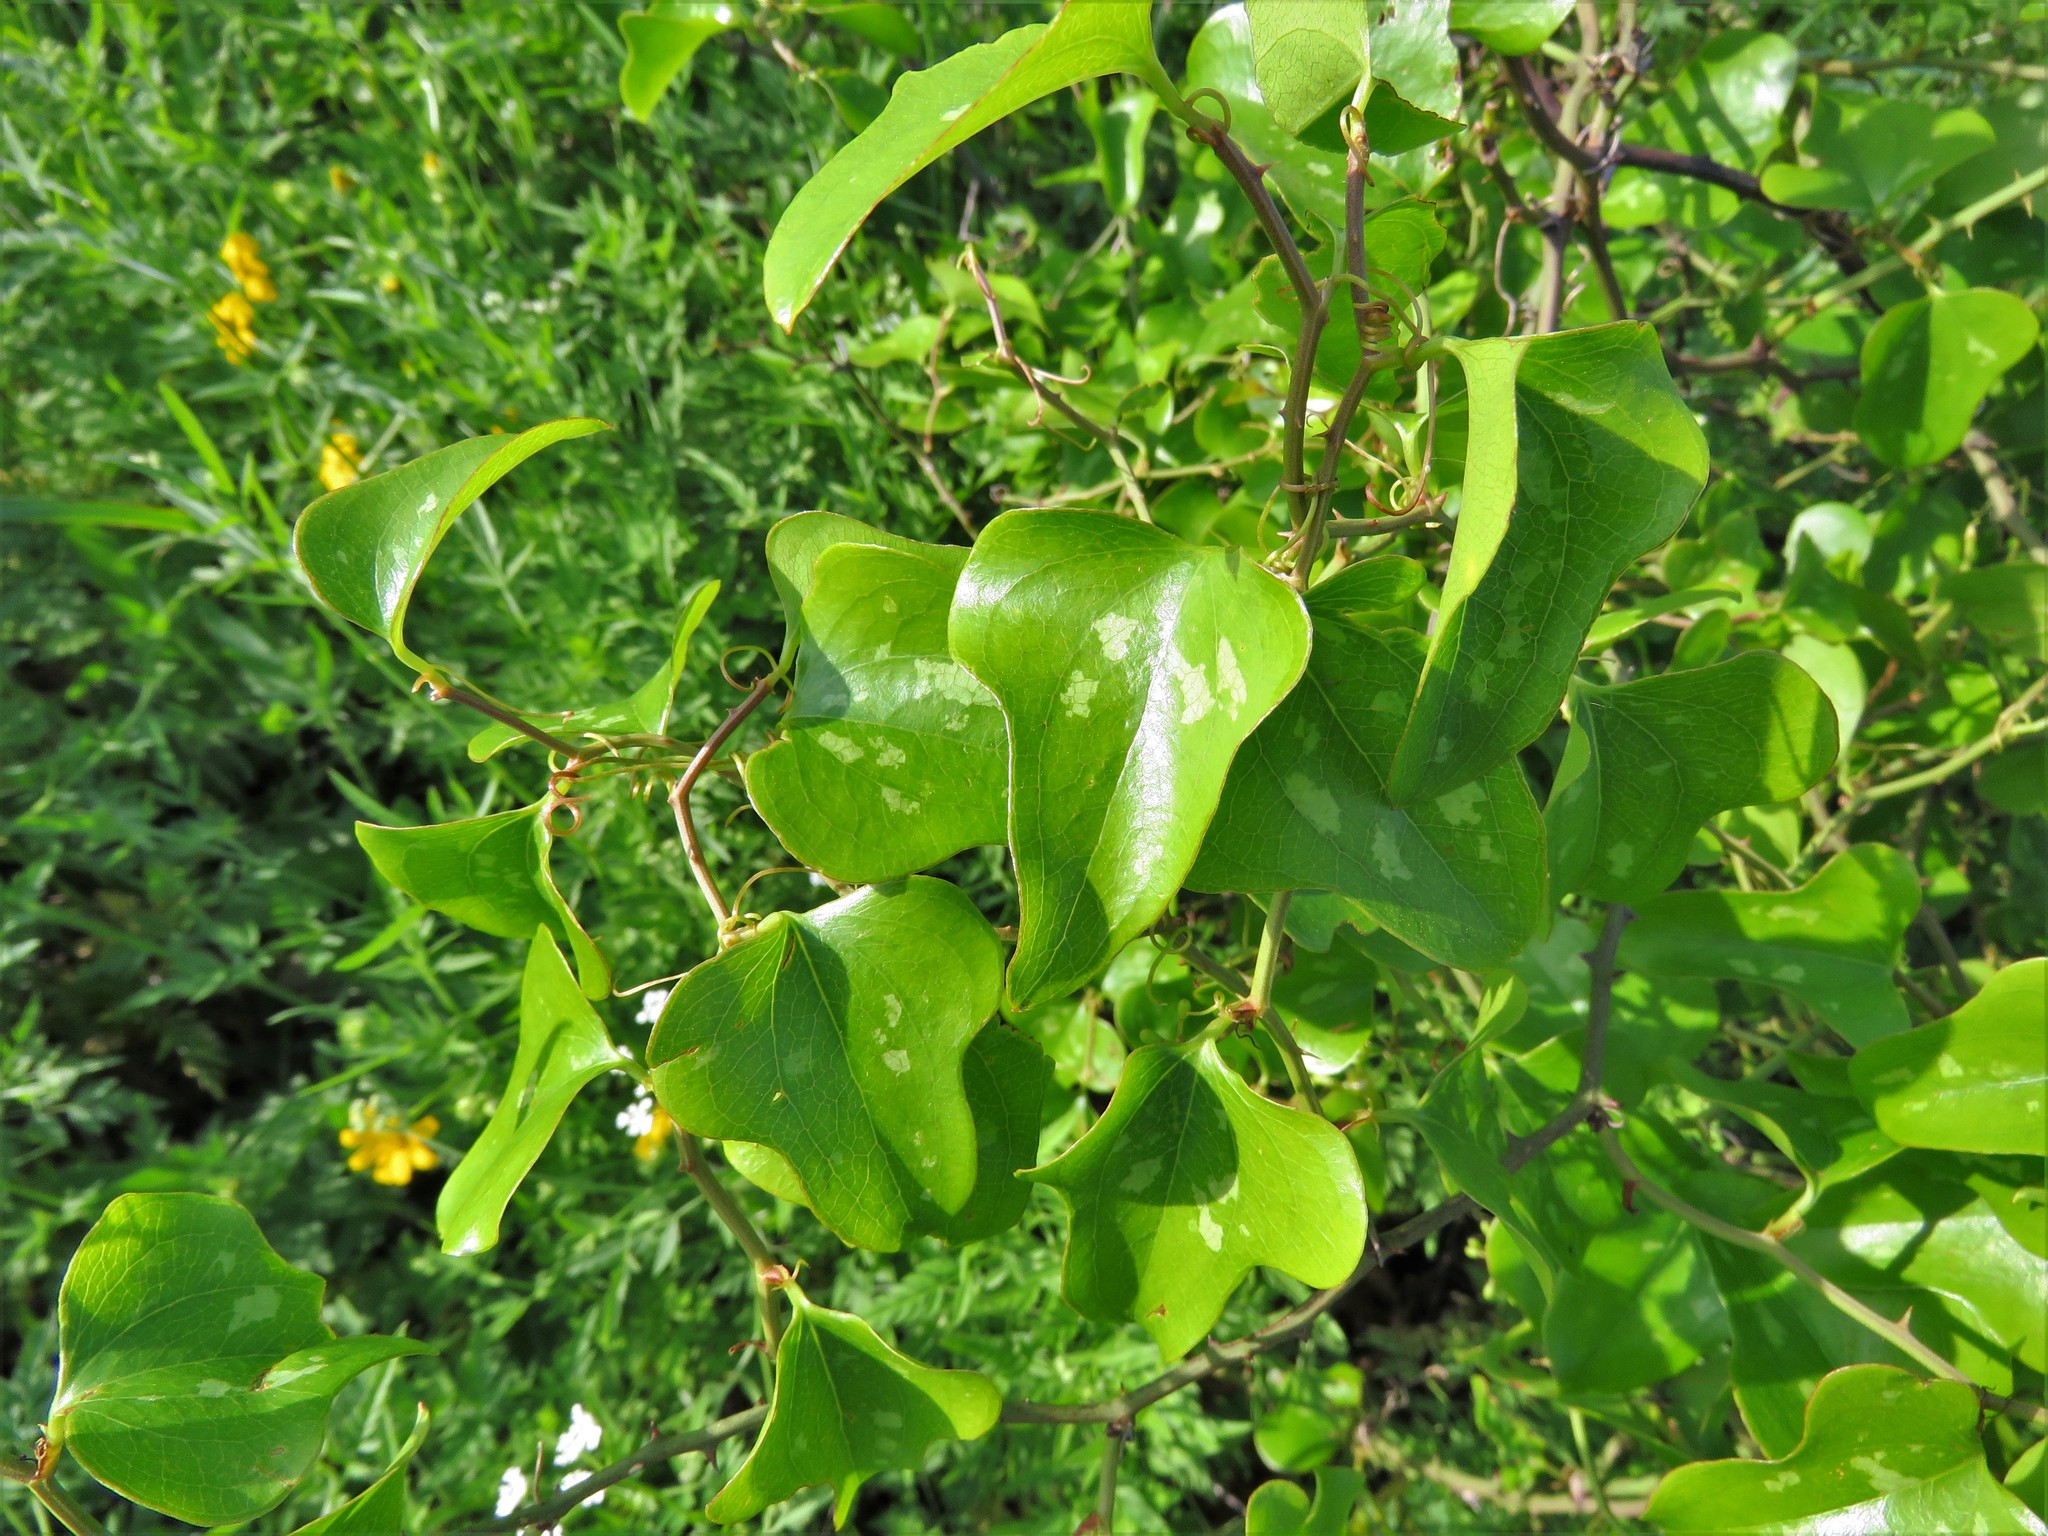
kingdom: Plantae
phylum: Tracheophyta
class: Liliopsida
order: Liliales
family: Smilacaceae
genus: Smilax
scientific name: Smilax bona-nox
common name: Catbrier
